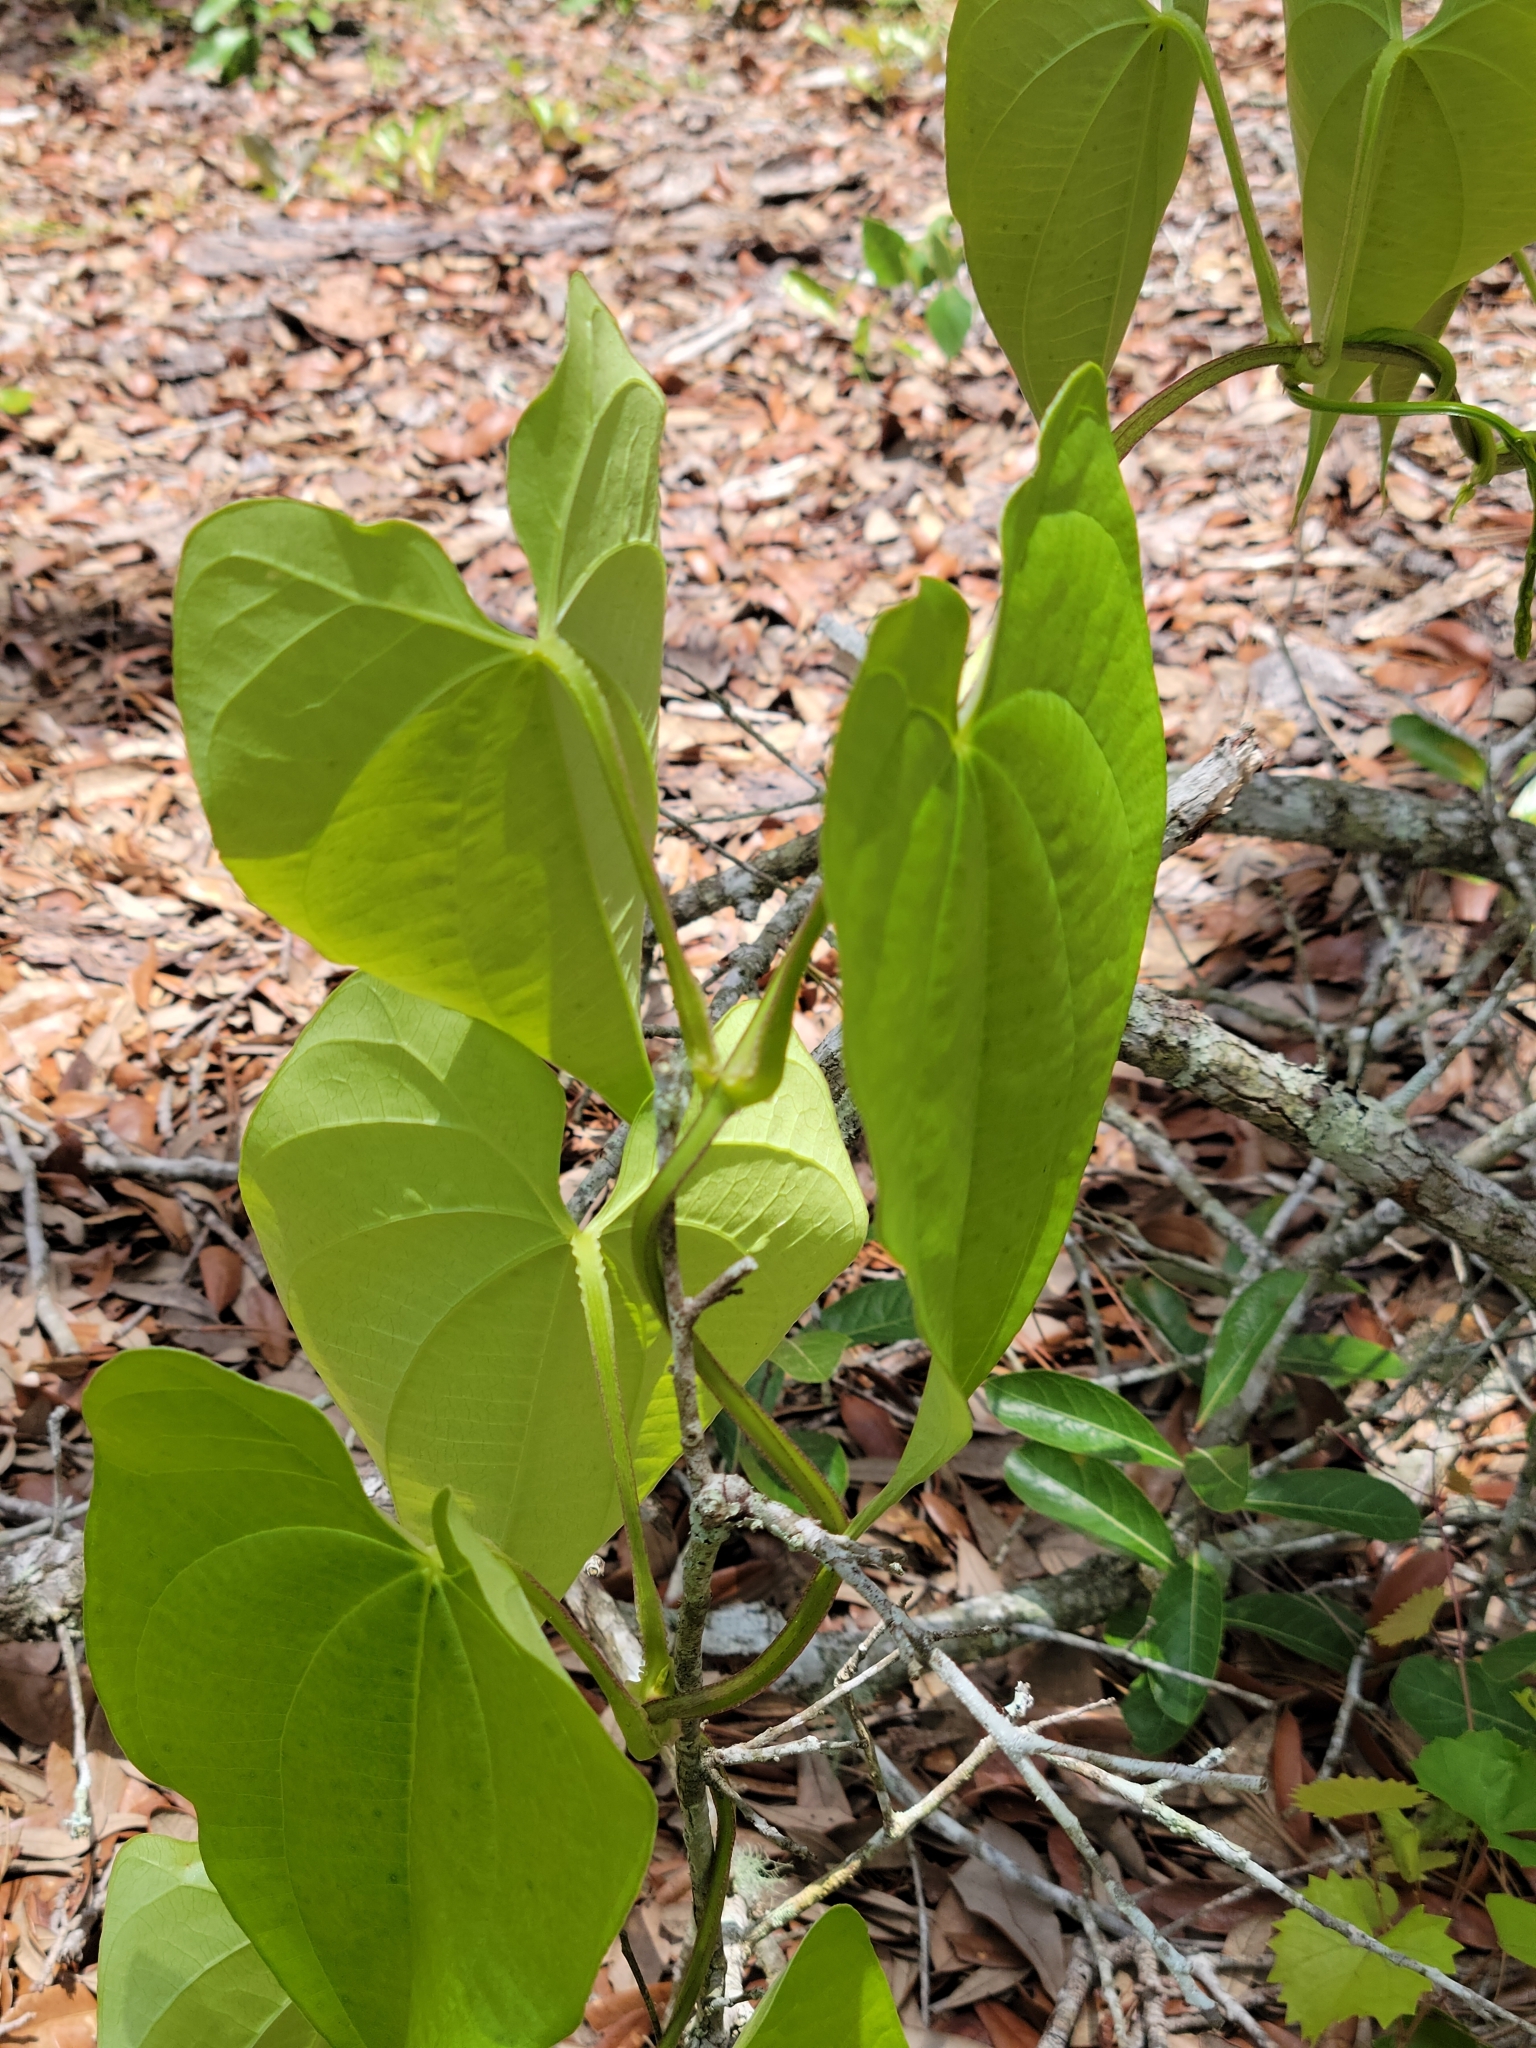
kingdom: Plantae
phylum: Tracheophyta
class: Liliopsida
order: Dioscoreales
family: Dioscoreaceae
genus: Dioscorea
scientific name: Dioscorea alata
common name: Water yam
